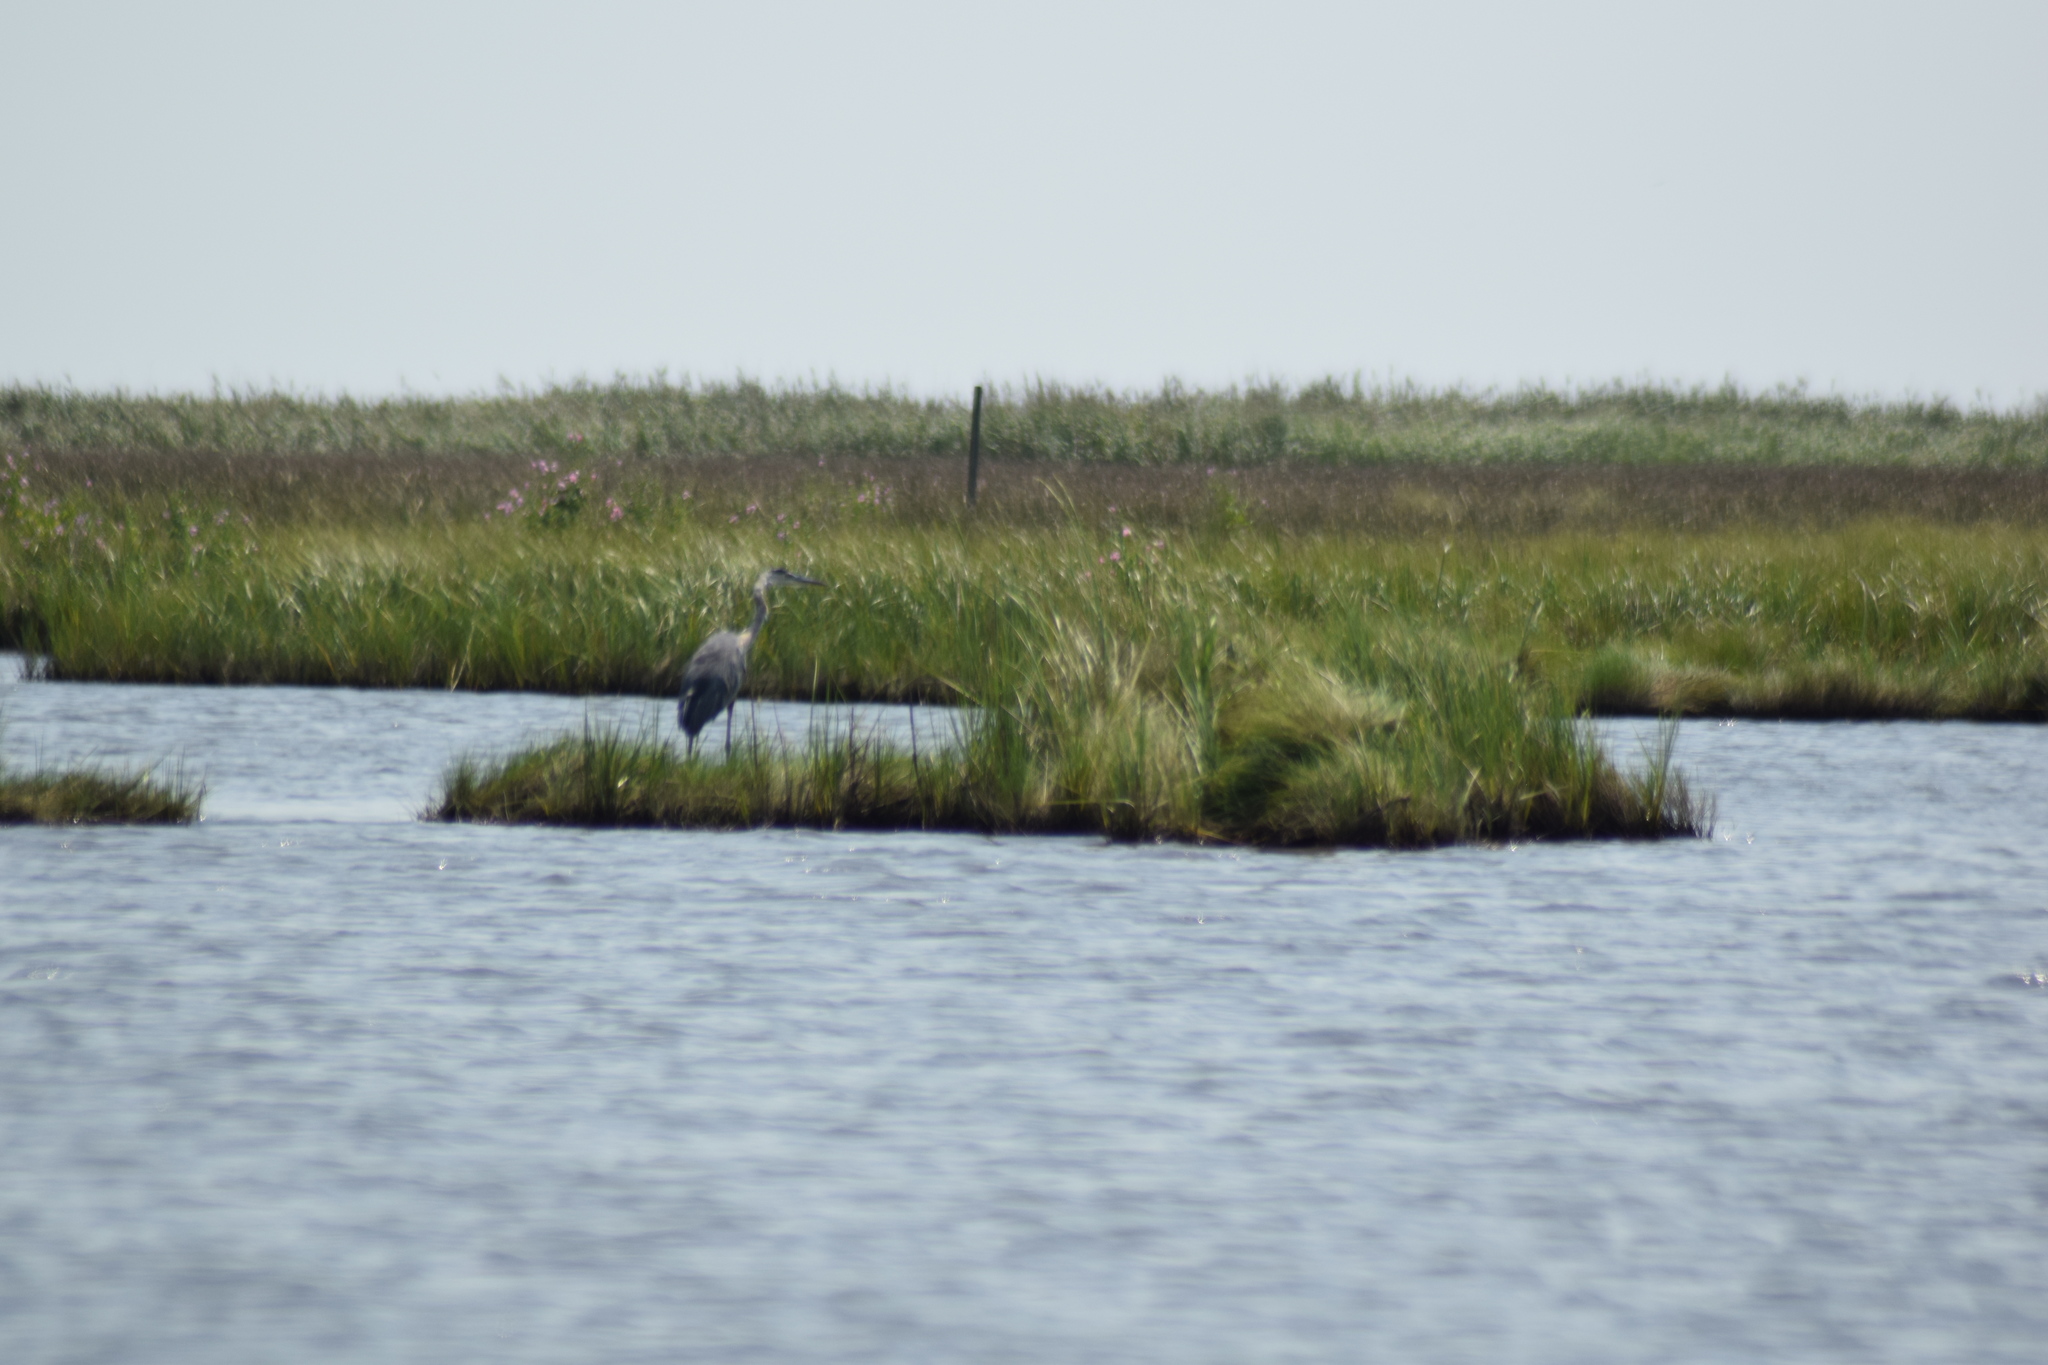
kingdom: Animalia
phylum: Chordata
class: Aves
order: Pelecaniformes
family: Ardeidae
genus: Ardea
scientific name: Ardea herodias
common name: Great blue heron
